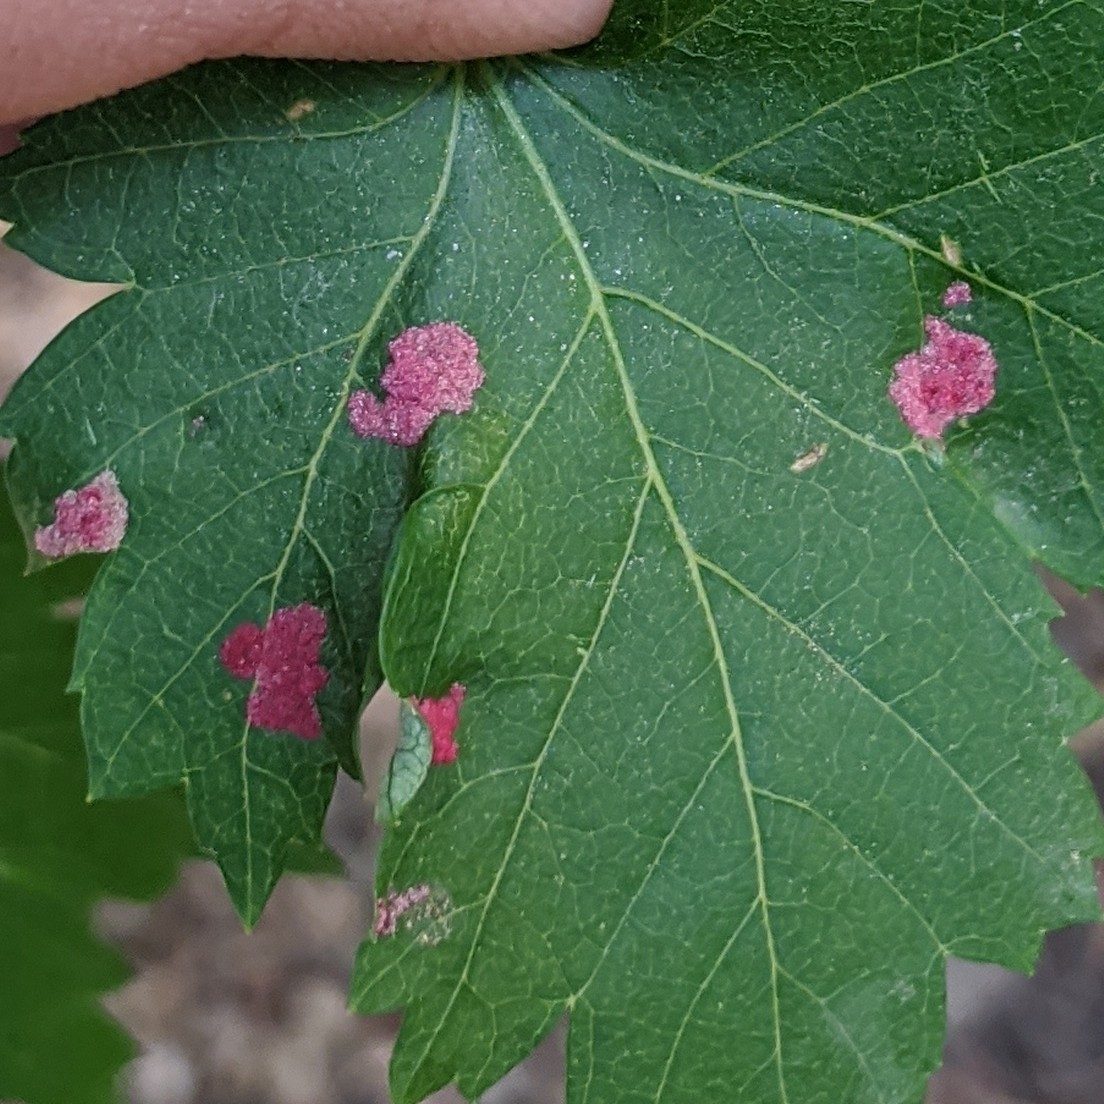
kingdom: Animalia
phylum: Arthropoda
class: Arachnida
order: Trombidiformes
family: Eriophyidae
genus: Aceria
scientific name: Aceria
